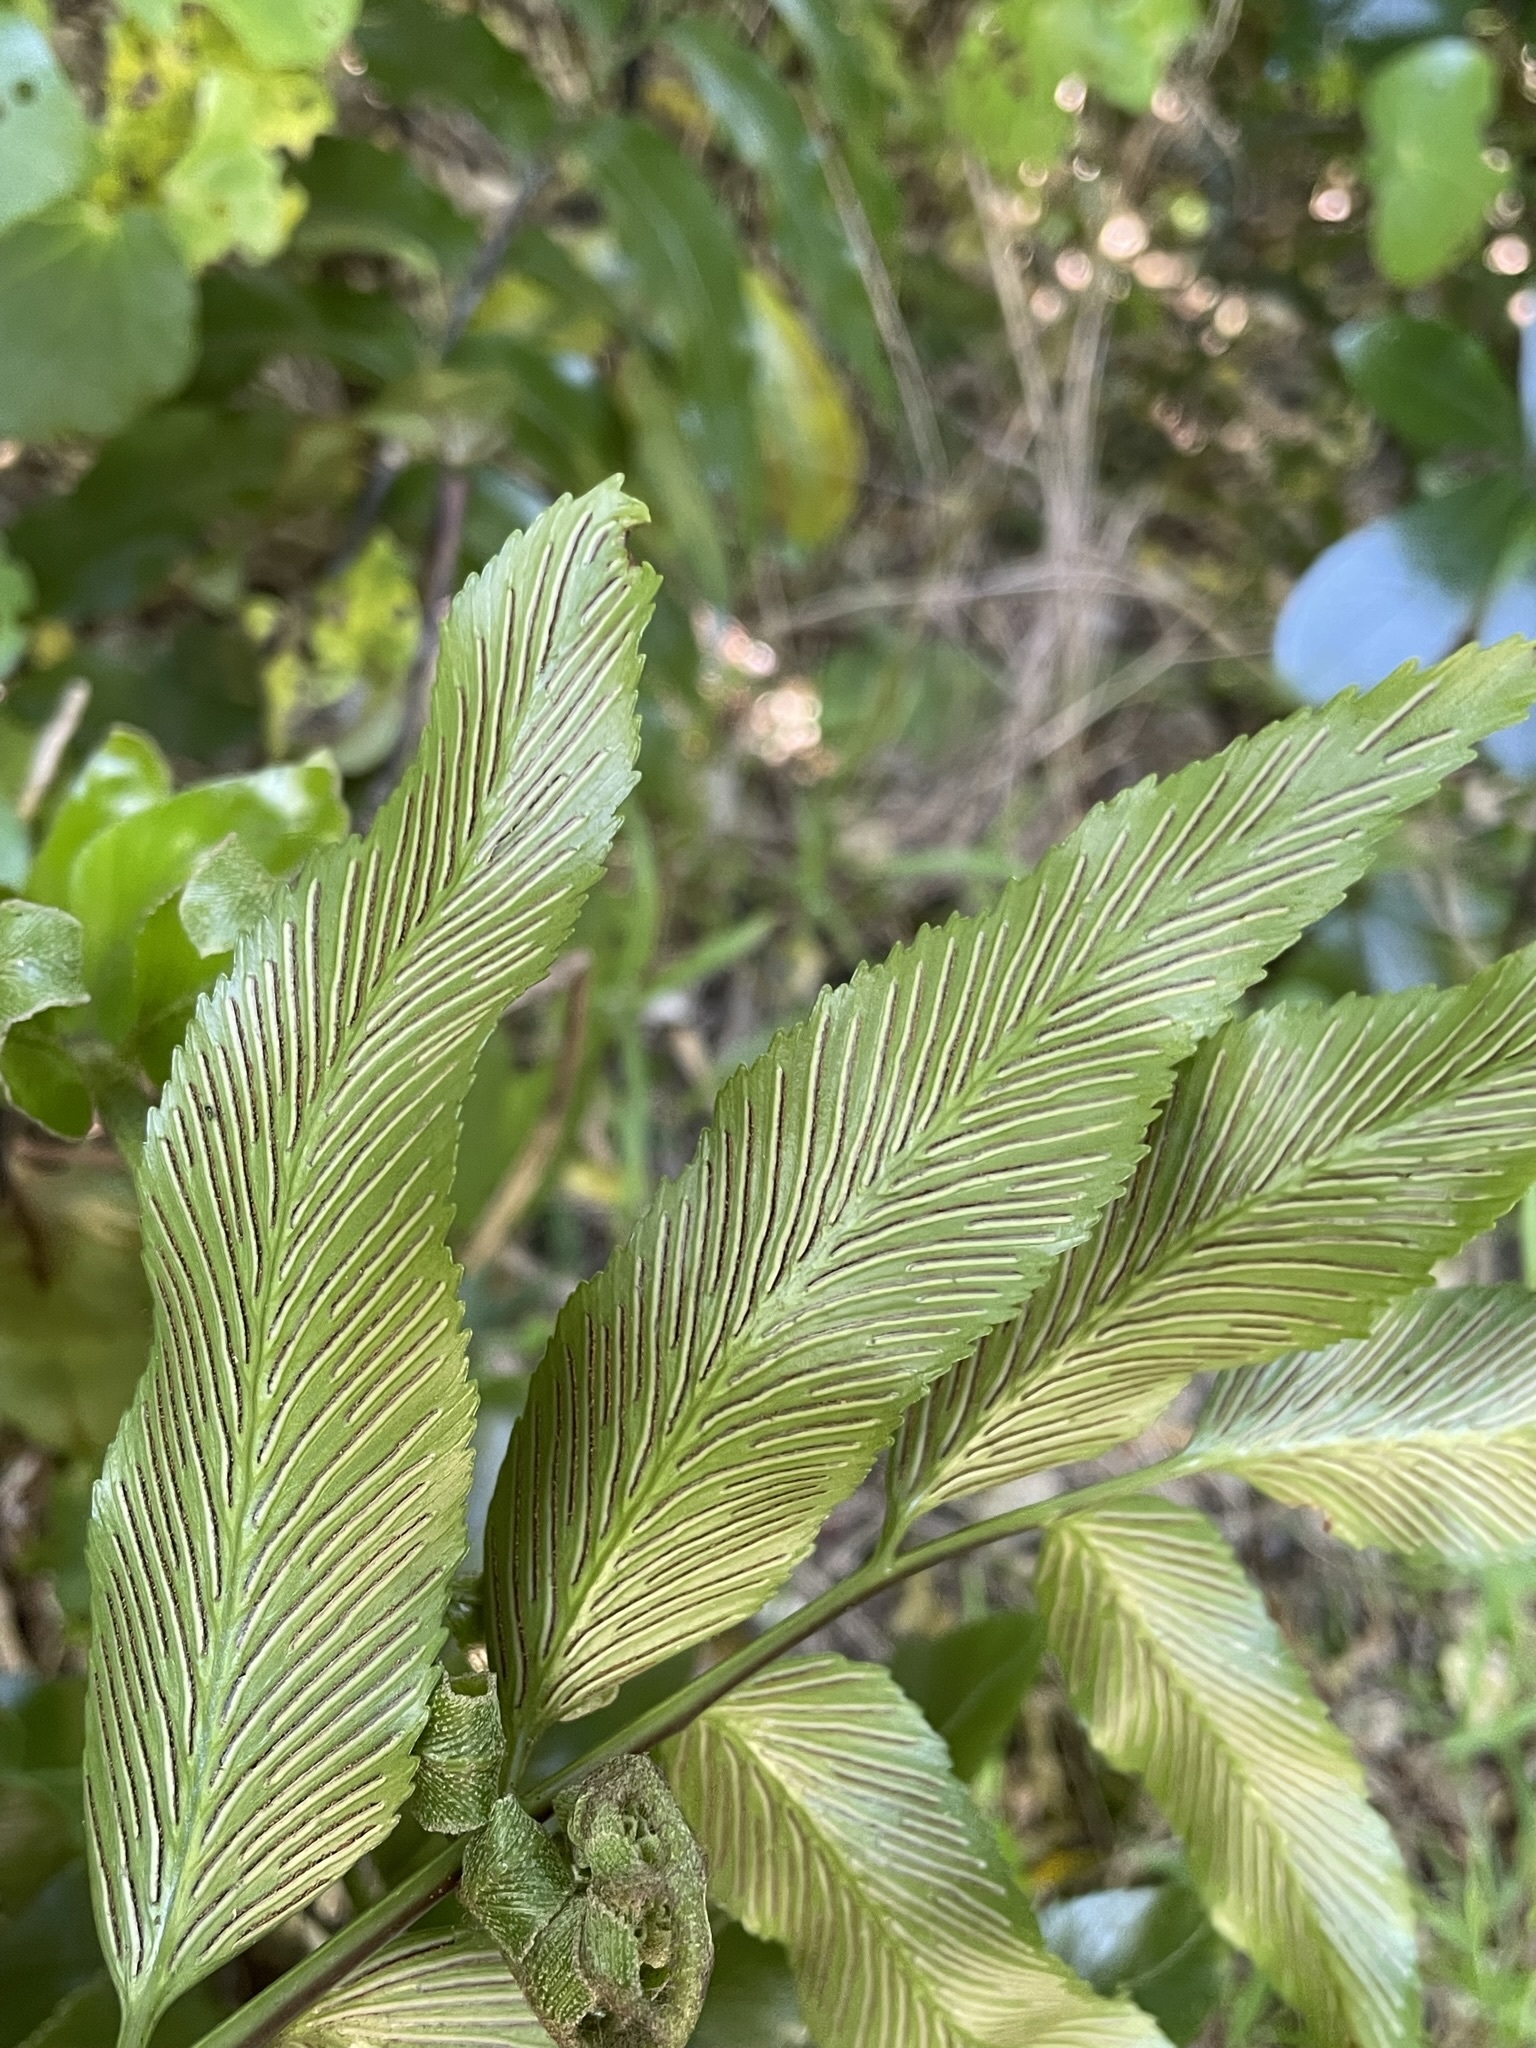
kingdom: Plantae
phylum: Tracheophyta
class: Polypodiopsida
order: Polypodiales
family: Aspleniaceae
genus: Asplenium
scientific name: Asplenium oblongifolium
